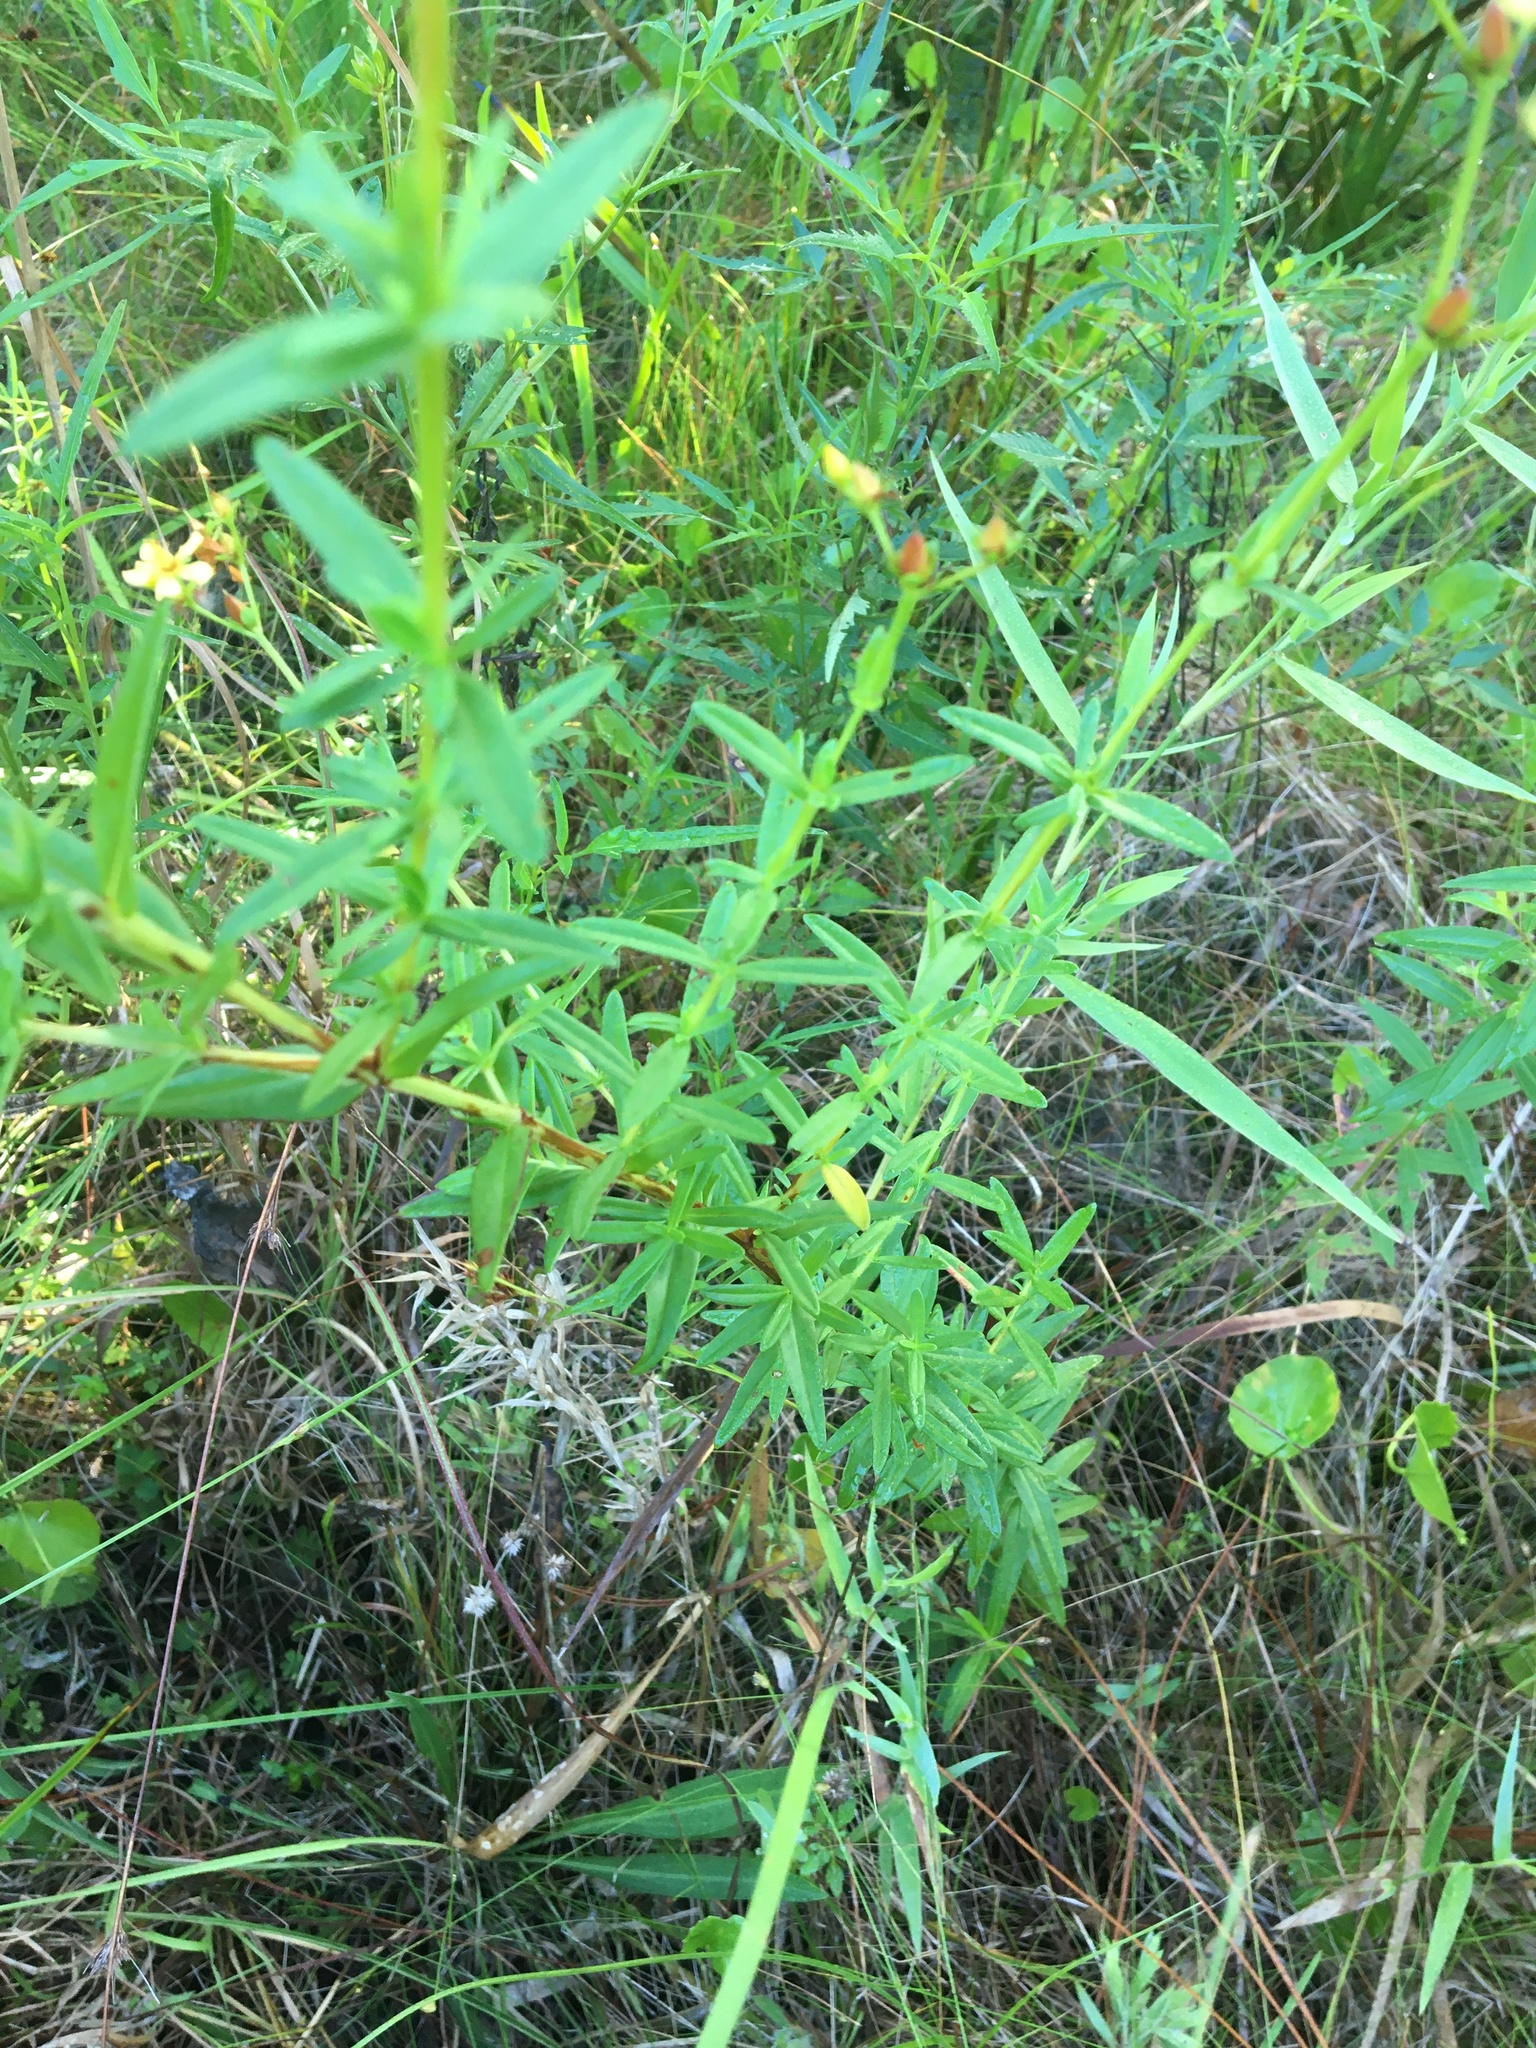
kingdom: Plantae
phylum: Tracheophyta
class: Magnoliopsida
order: Malpighiales
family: Hypericaceae
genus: Hypericum
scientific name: Hypericum cistifolium
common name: Round-pod st. john's-wort
